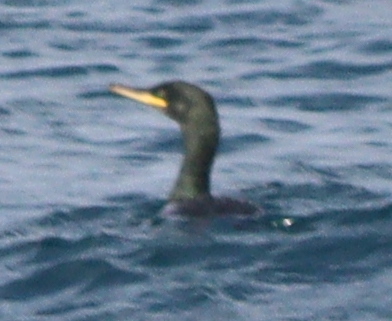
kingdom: Animalia
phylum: Chordata
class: Aves
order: Suliformes
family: Phalacrocoracidae
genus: Phalacrocorax
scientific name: Phalacrocorax aristotelis
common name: European shag
